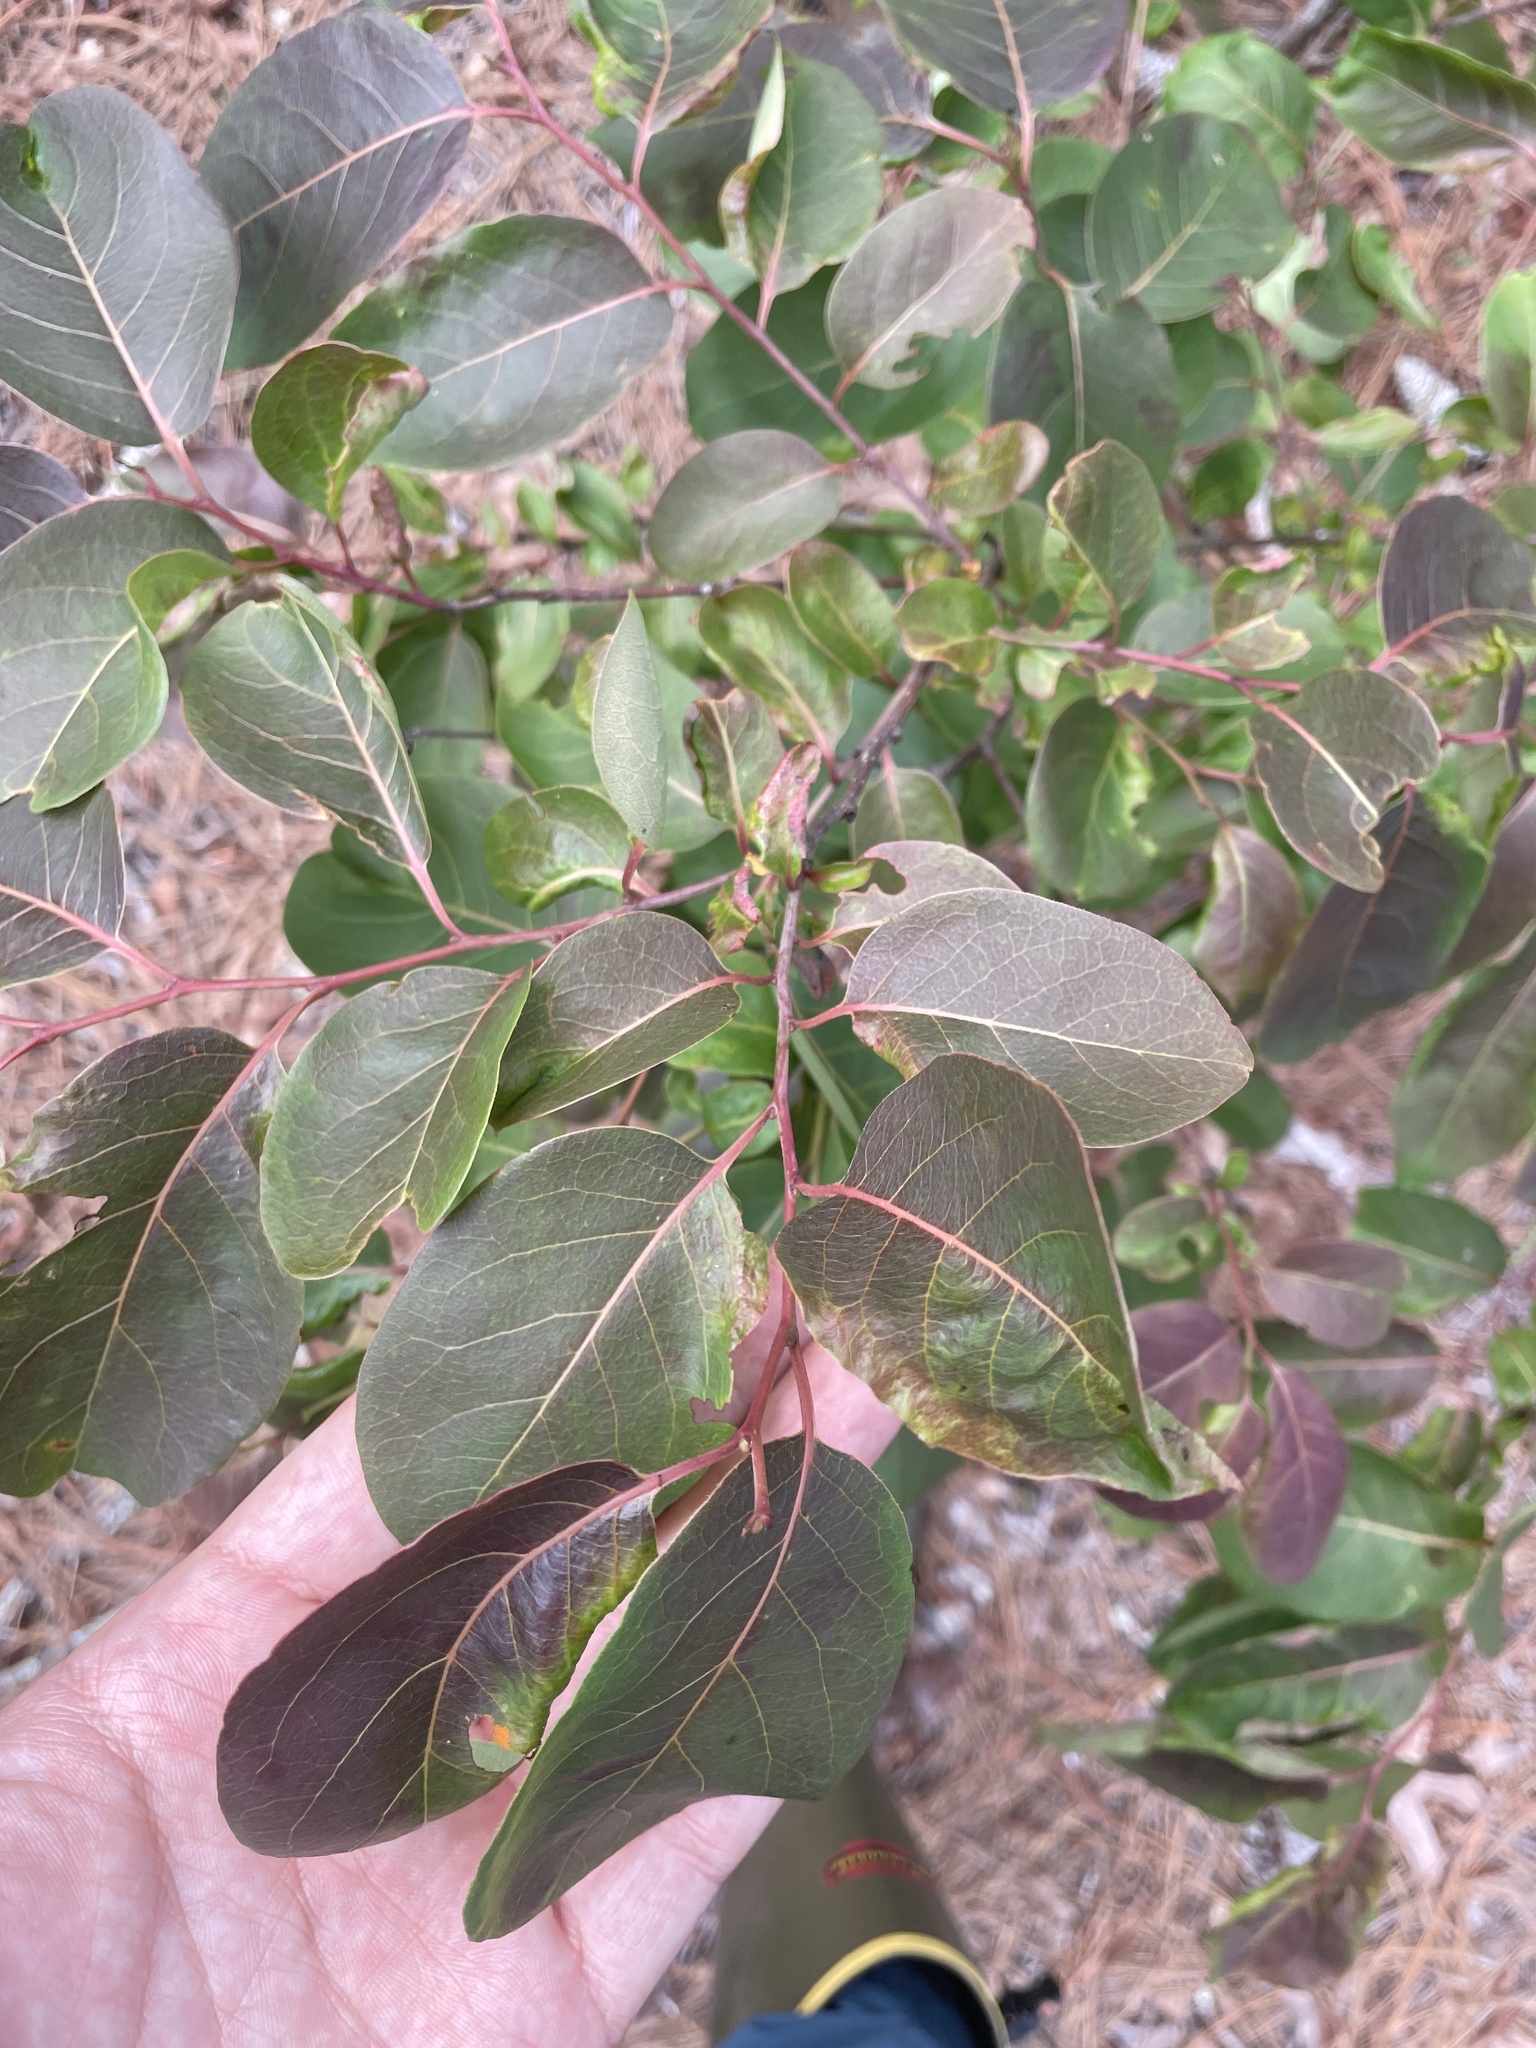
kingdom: Plantae
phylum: Tracheophyta
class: Magnoliopsida
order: Ericales
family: Ebenaceae
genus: Diospyros
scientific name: Diospyros virginiana
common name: Persimmon
